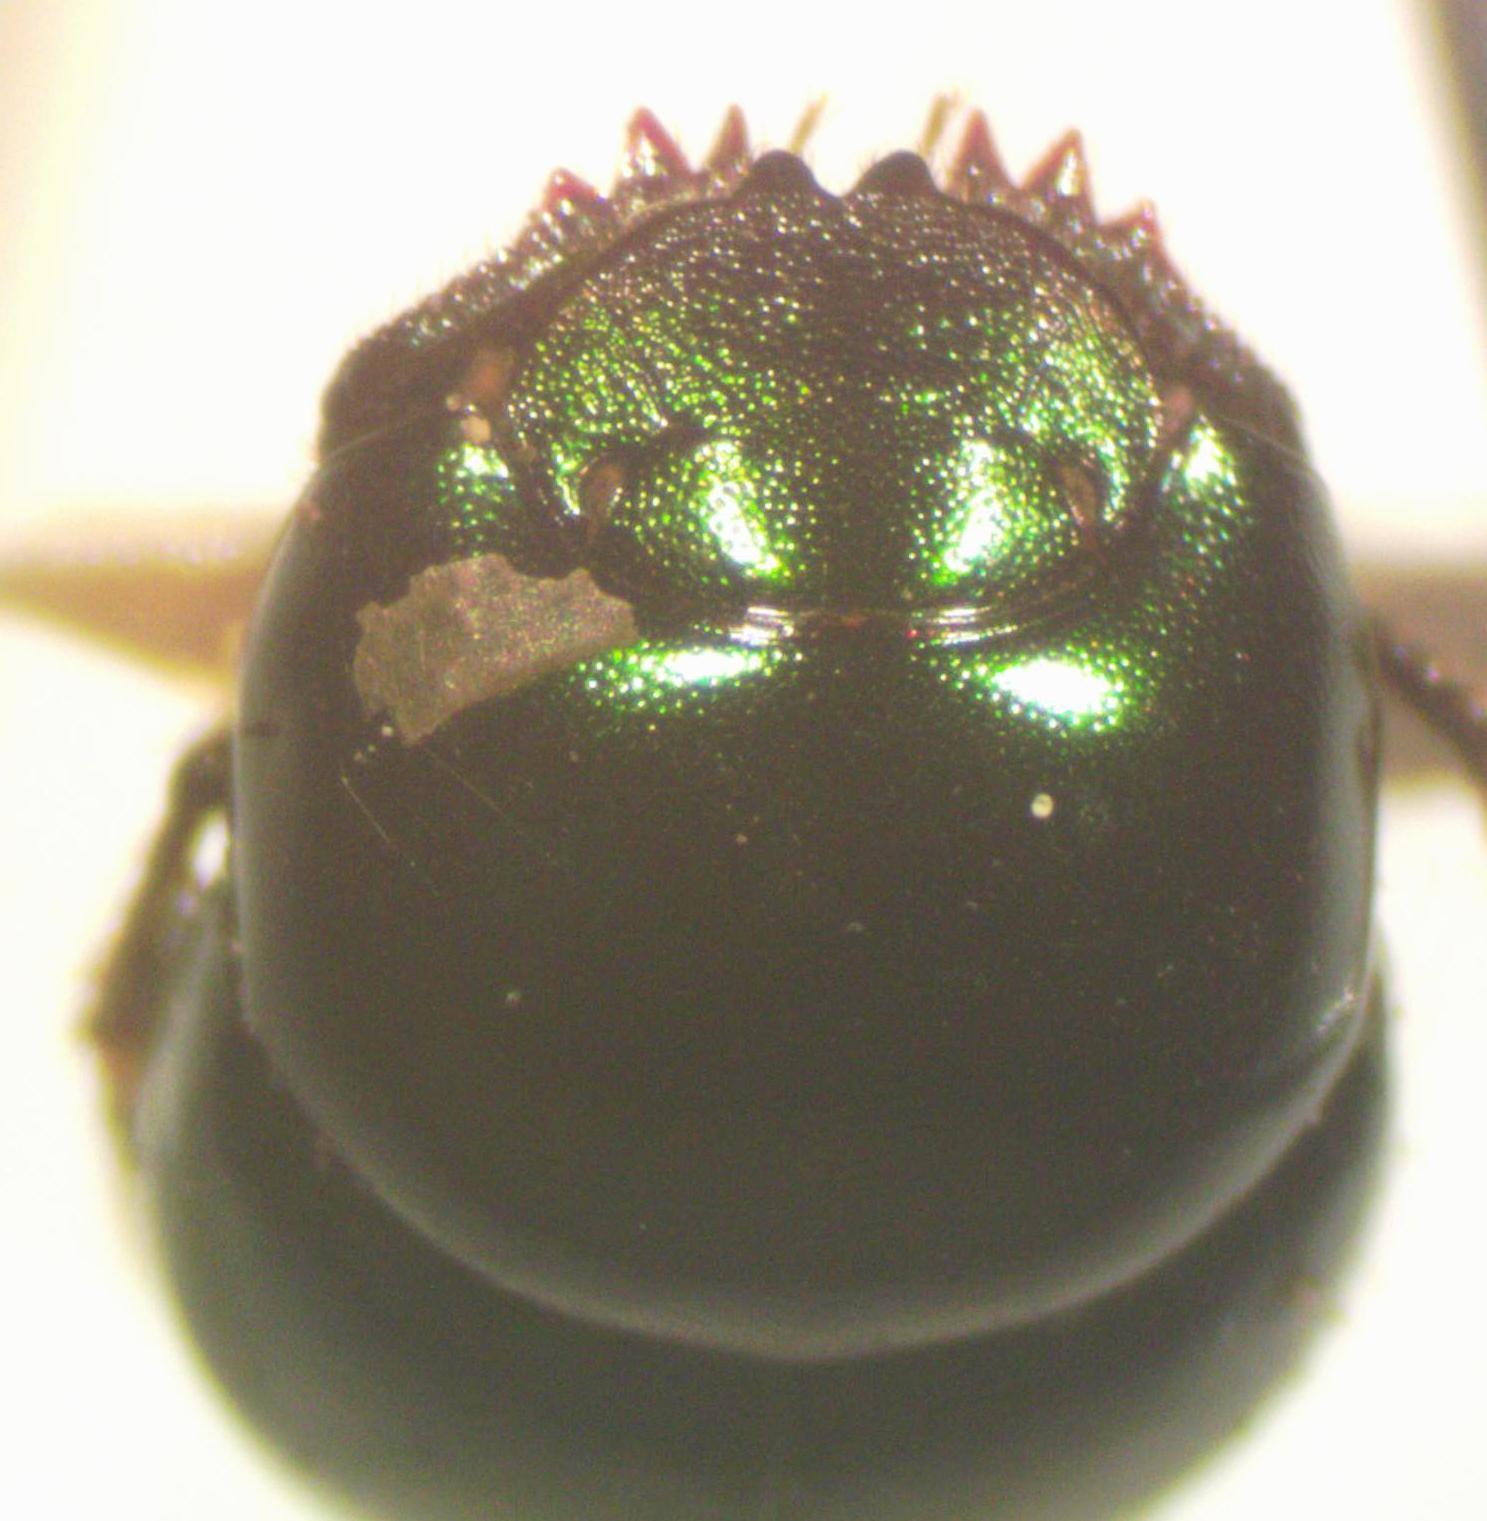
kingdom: Animalia
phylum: Arthropoda
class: Insecta
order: Coleoptera
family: Scarabaeidae
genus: Canthidium
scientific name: Canthidium laetum
